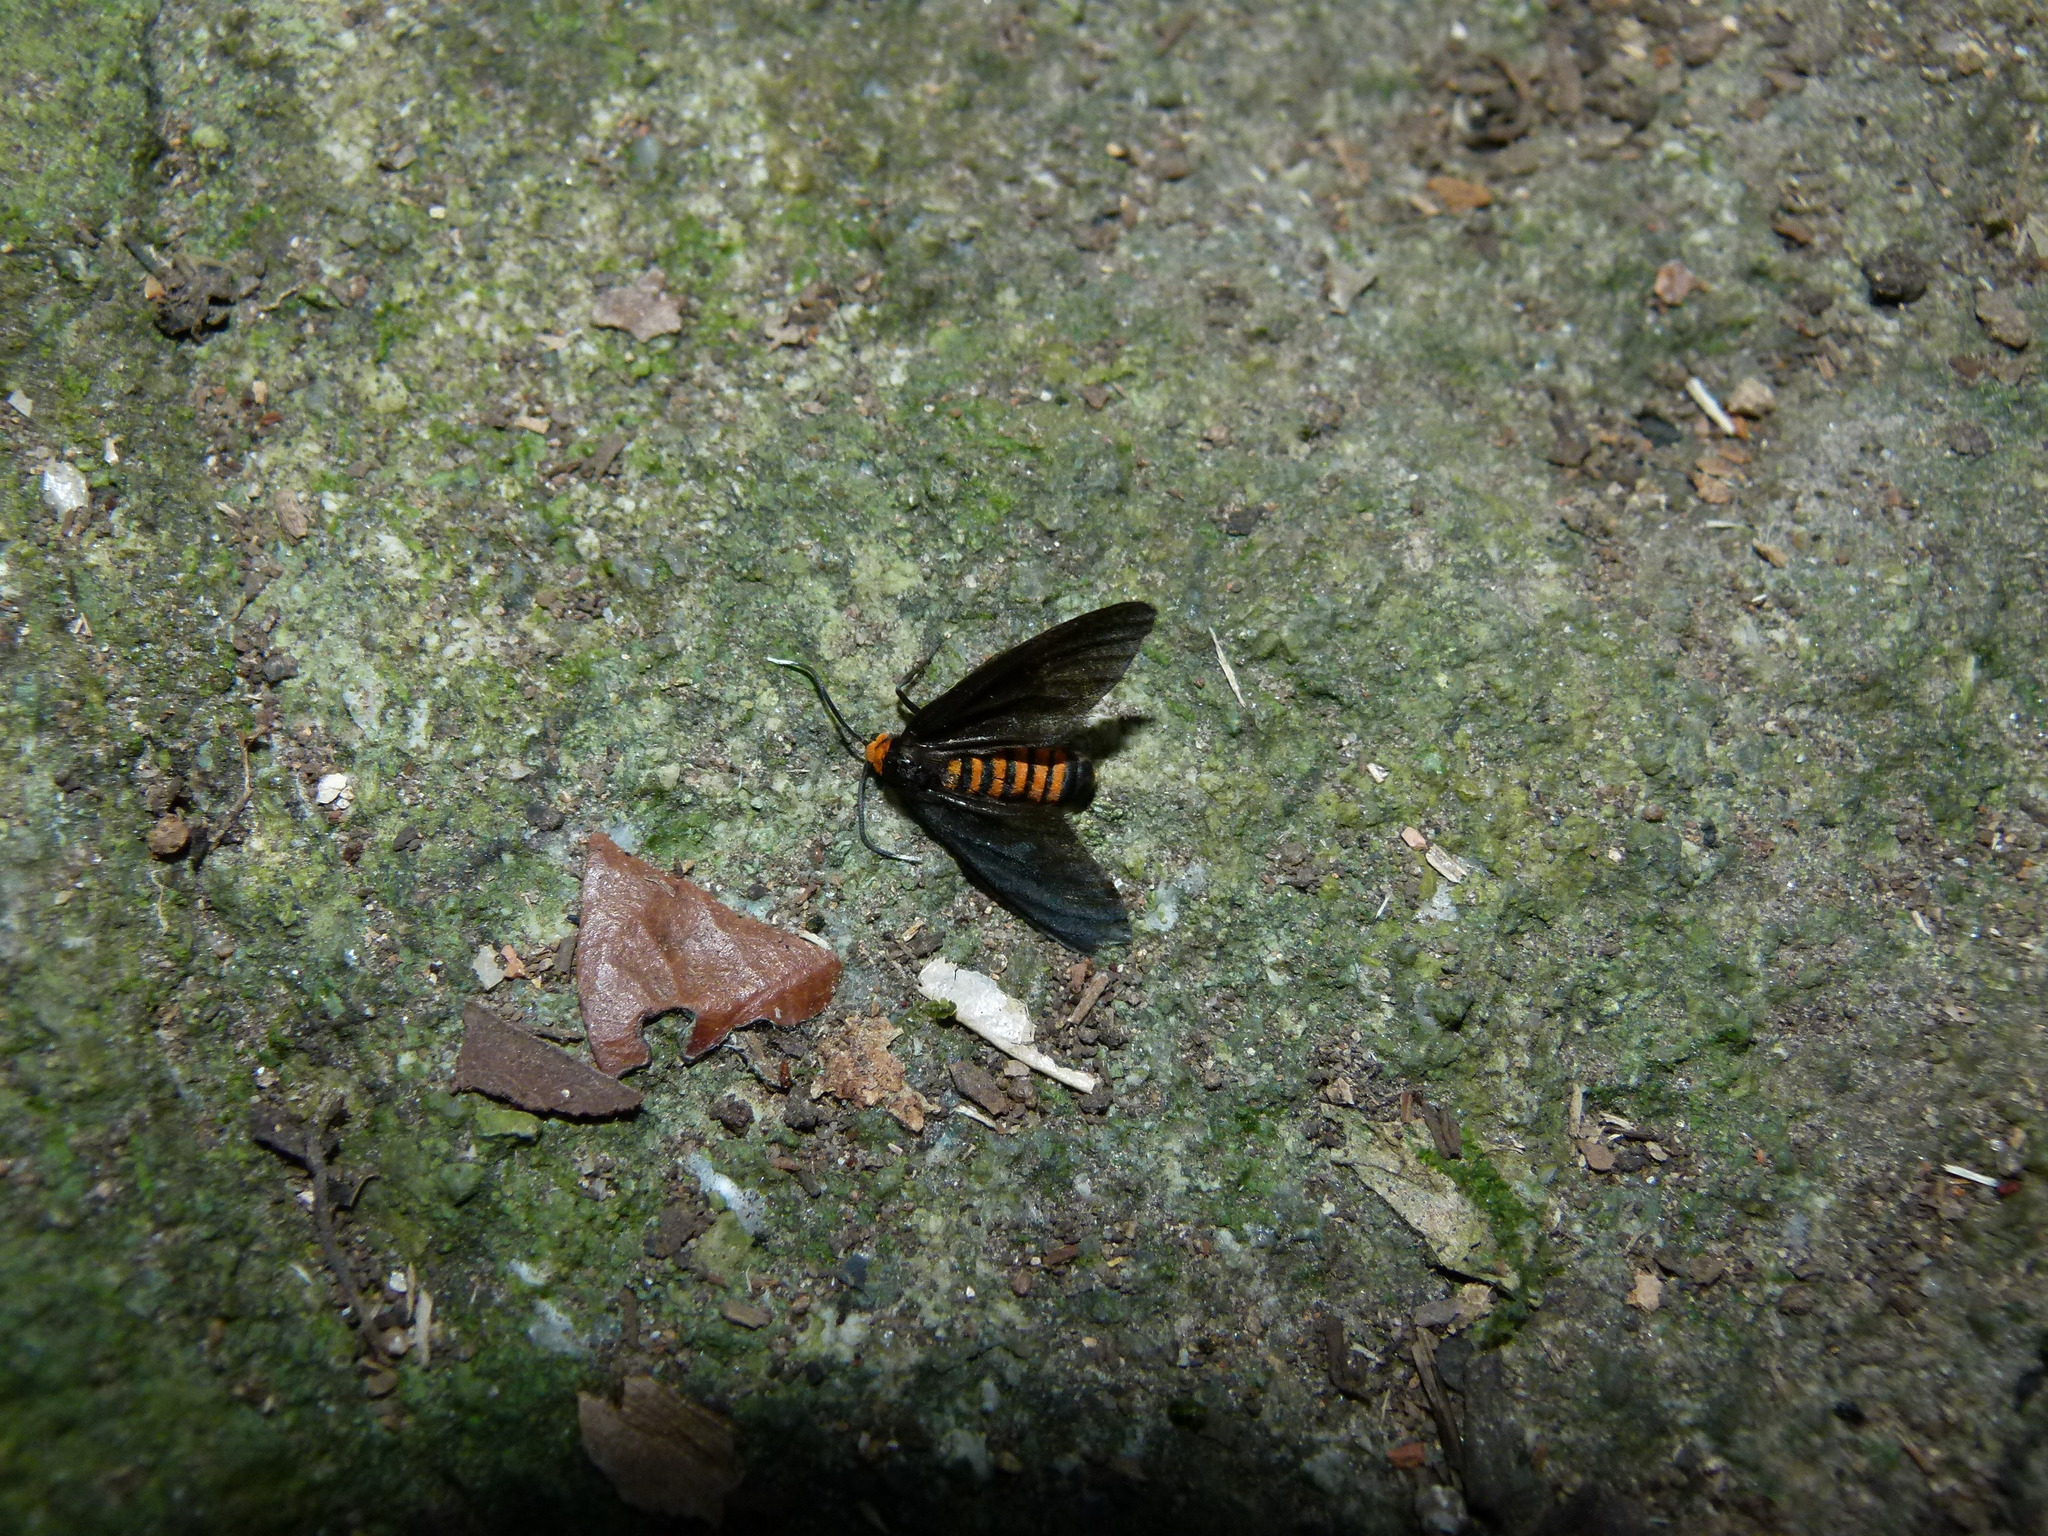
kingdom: Animalia
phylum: Arthropoda
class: Insecta
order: Lepidoptera
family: Erebidae
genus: Amata
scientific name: Amata bicolor
